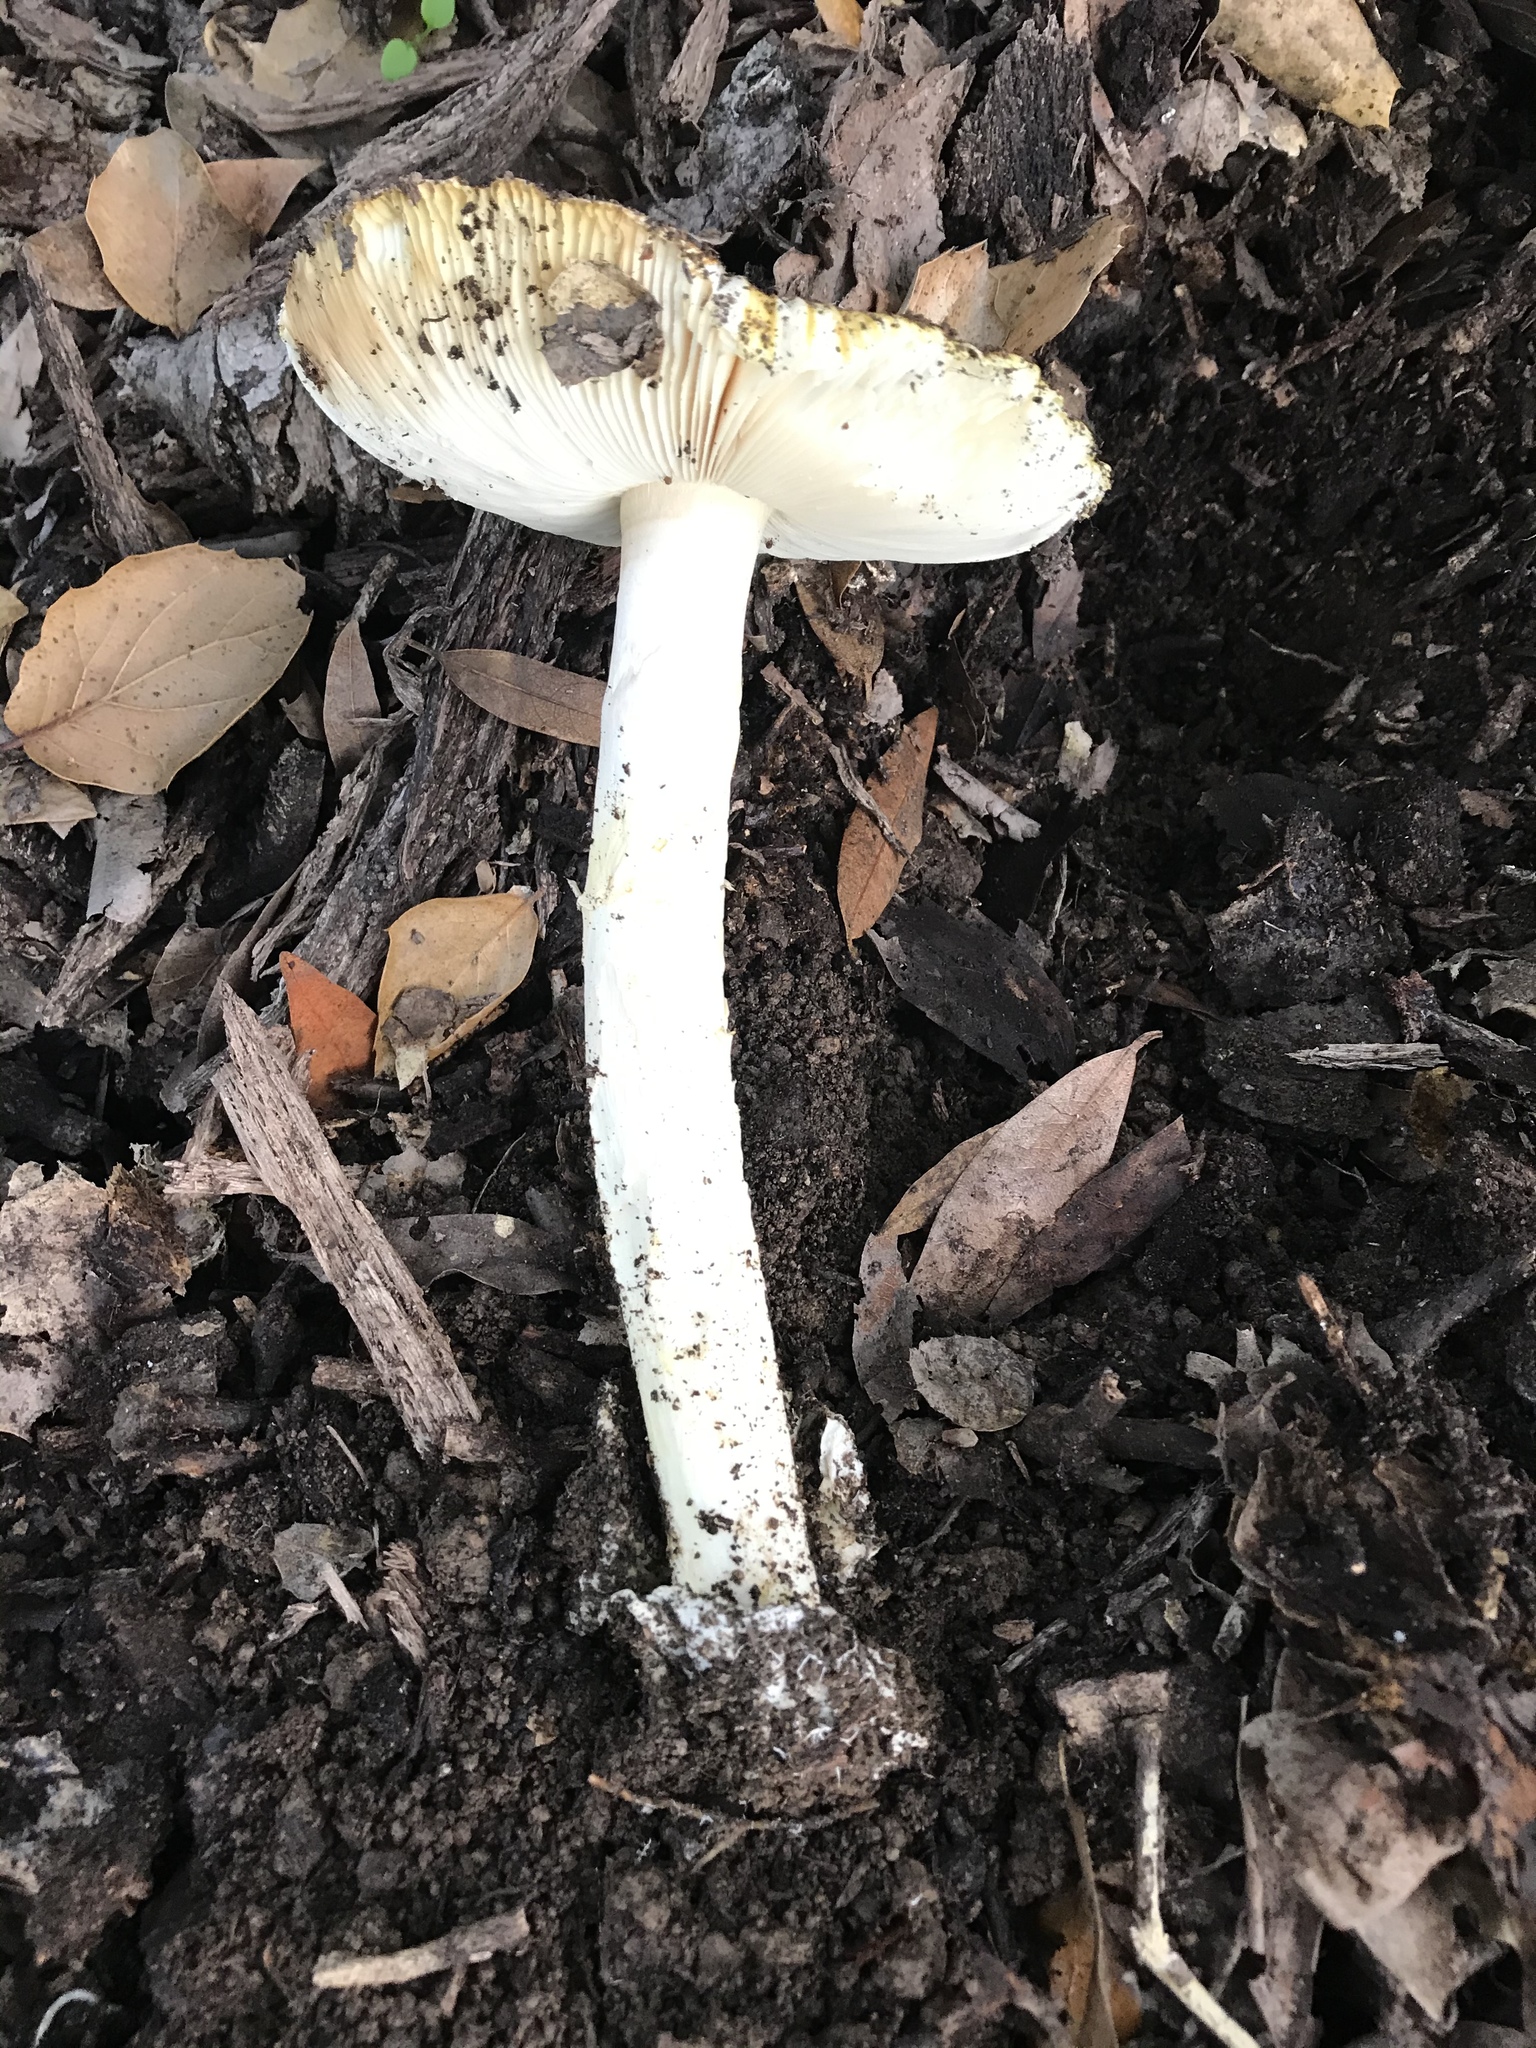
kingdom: Fungi
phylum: Basidiomycota
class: Agaricomycetes
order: Agaricales
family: Amanitaceae
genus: Amanita
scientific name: Amanita calyptroderma
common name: Coccora
